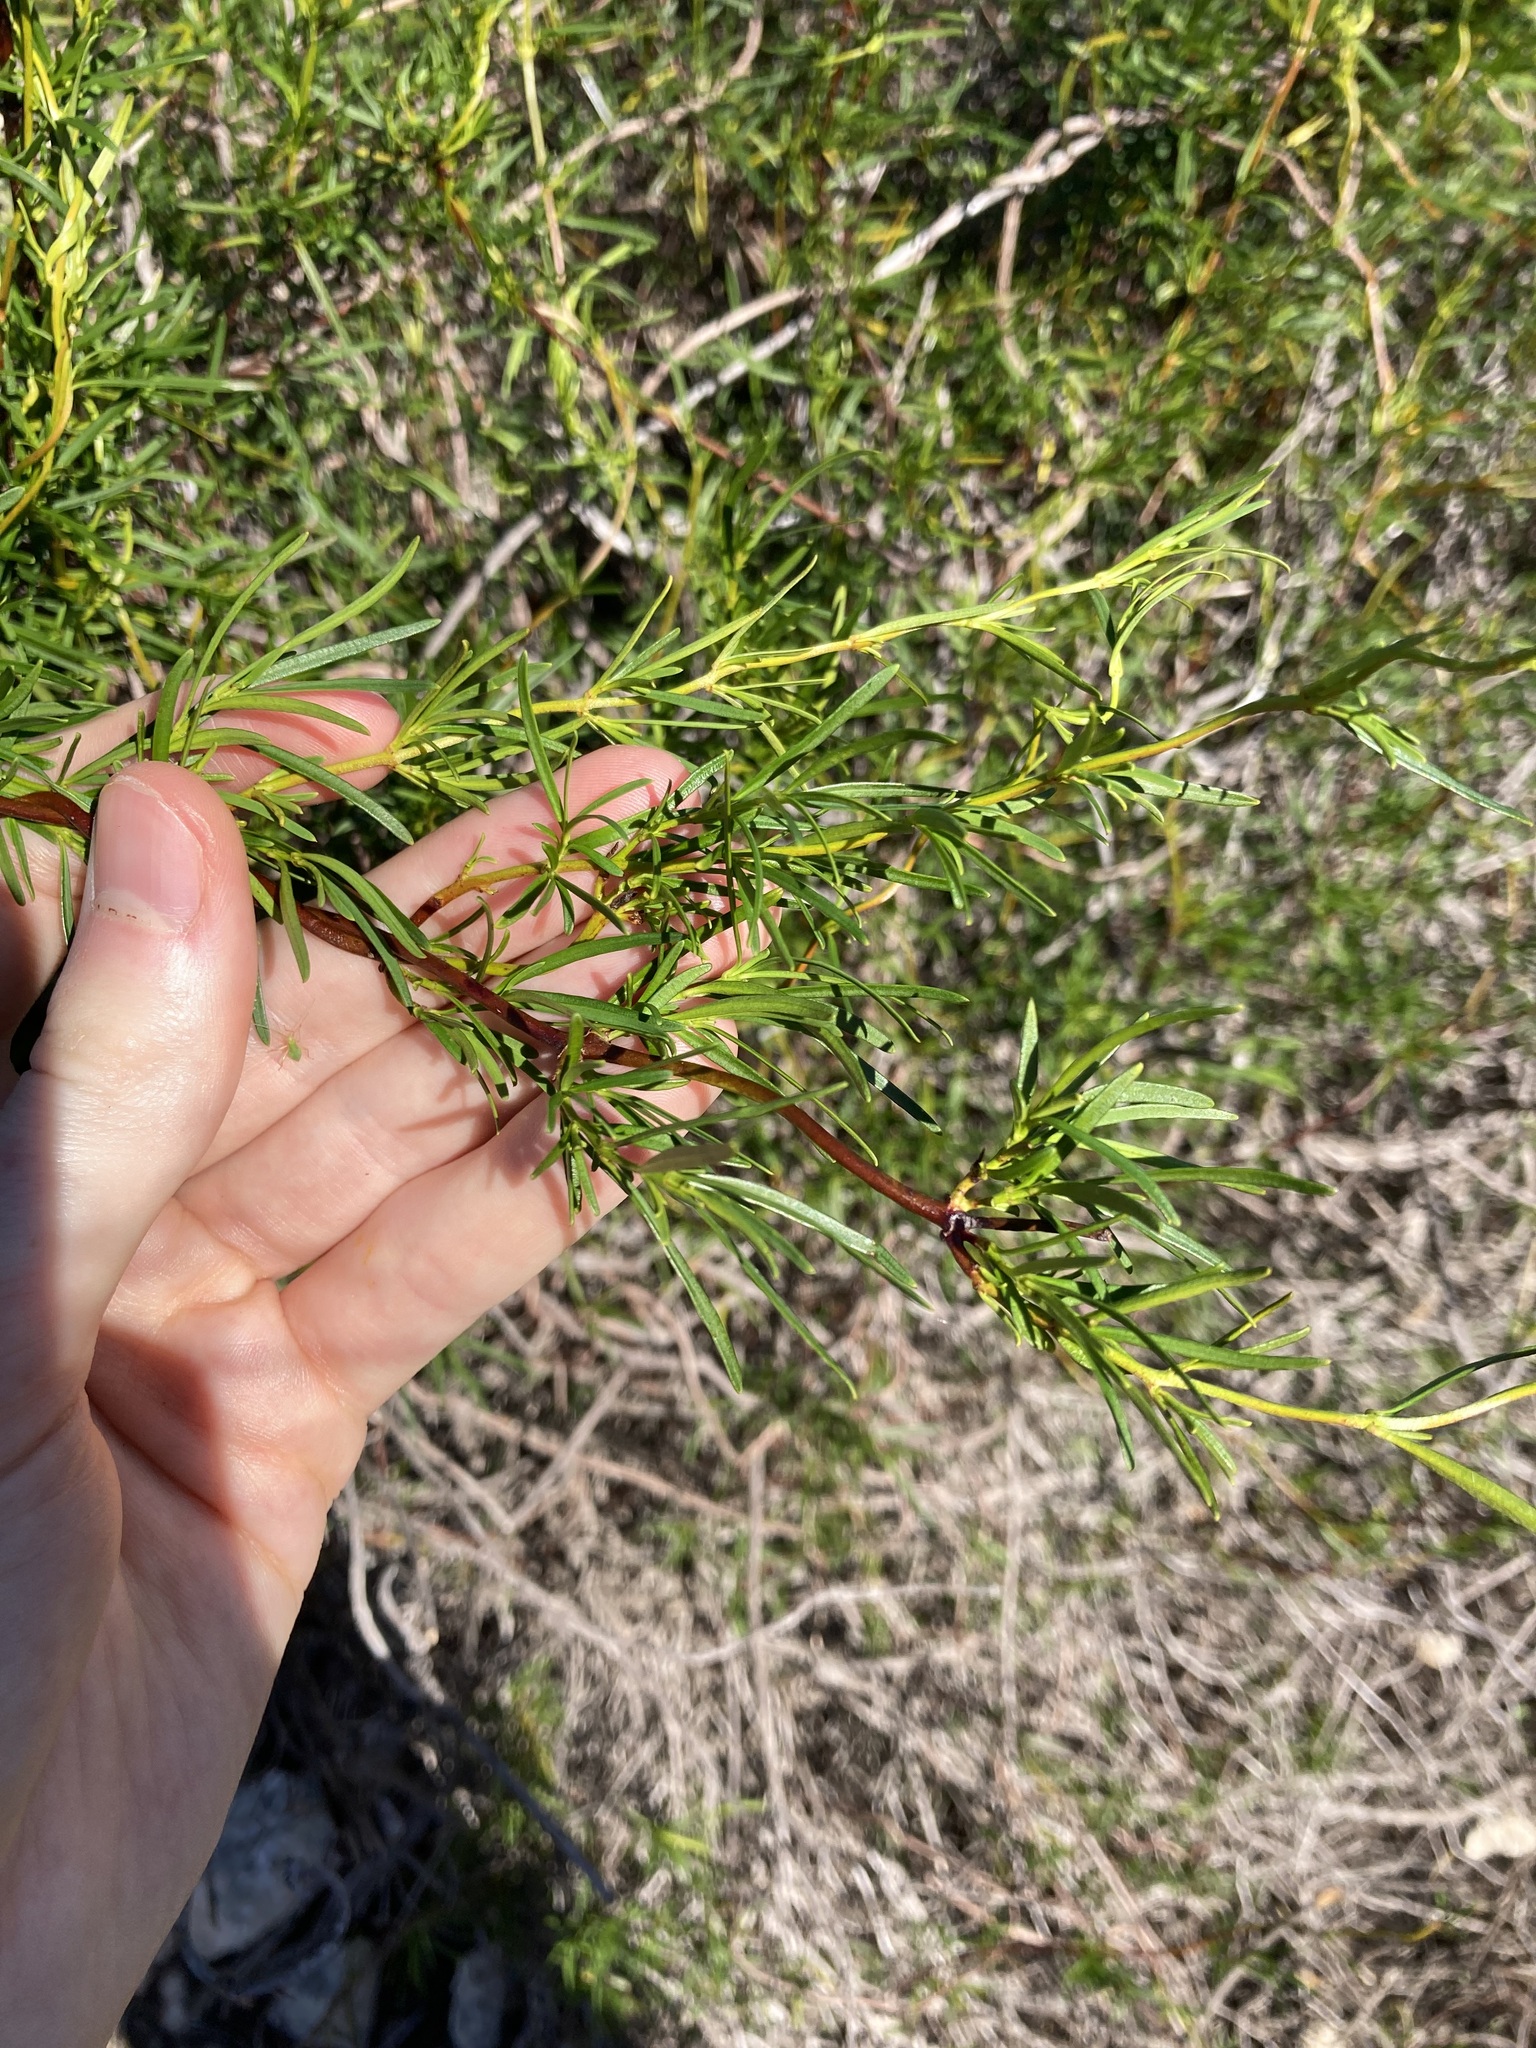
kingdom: Plantae
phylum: Tracheophyta
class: Magnoliopsida
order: Saxifragales
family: Aphanopetalaceae
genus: Aphanopetalum
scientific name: Aphanopetalum clematideum
